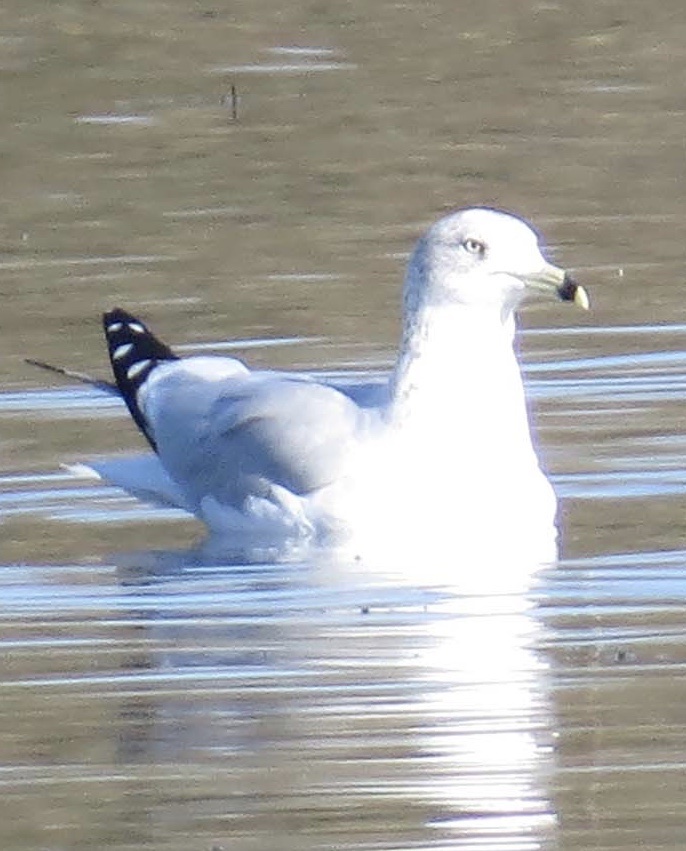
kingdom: Animalia
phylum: Chordata
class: Aves
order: Charadriiformes
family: Laridae
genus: Larus
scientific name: Larus delawarensis
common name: Ring-billed gull
